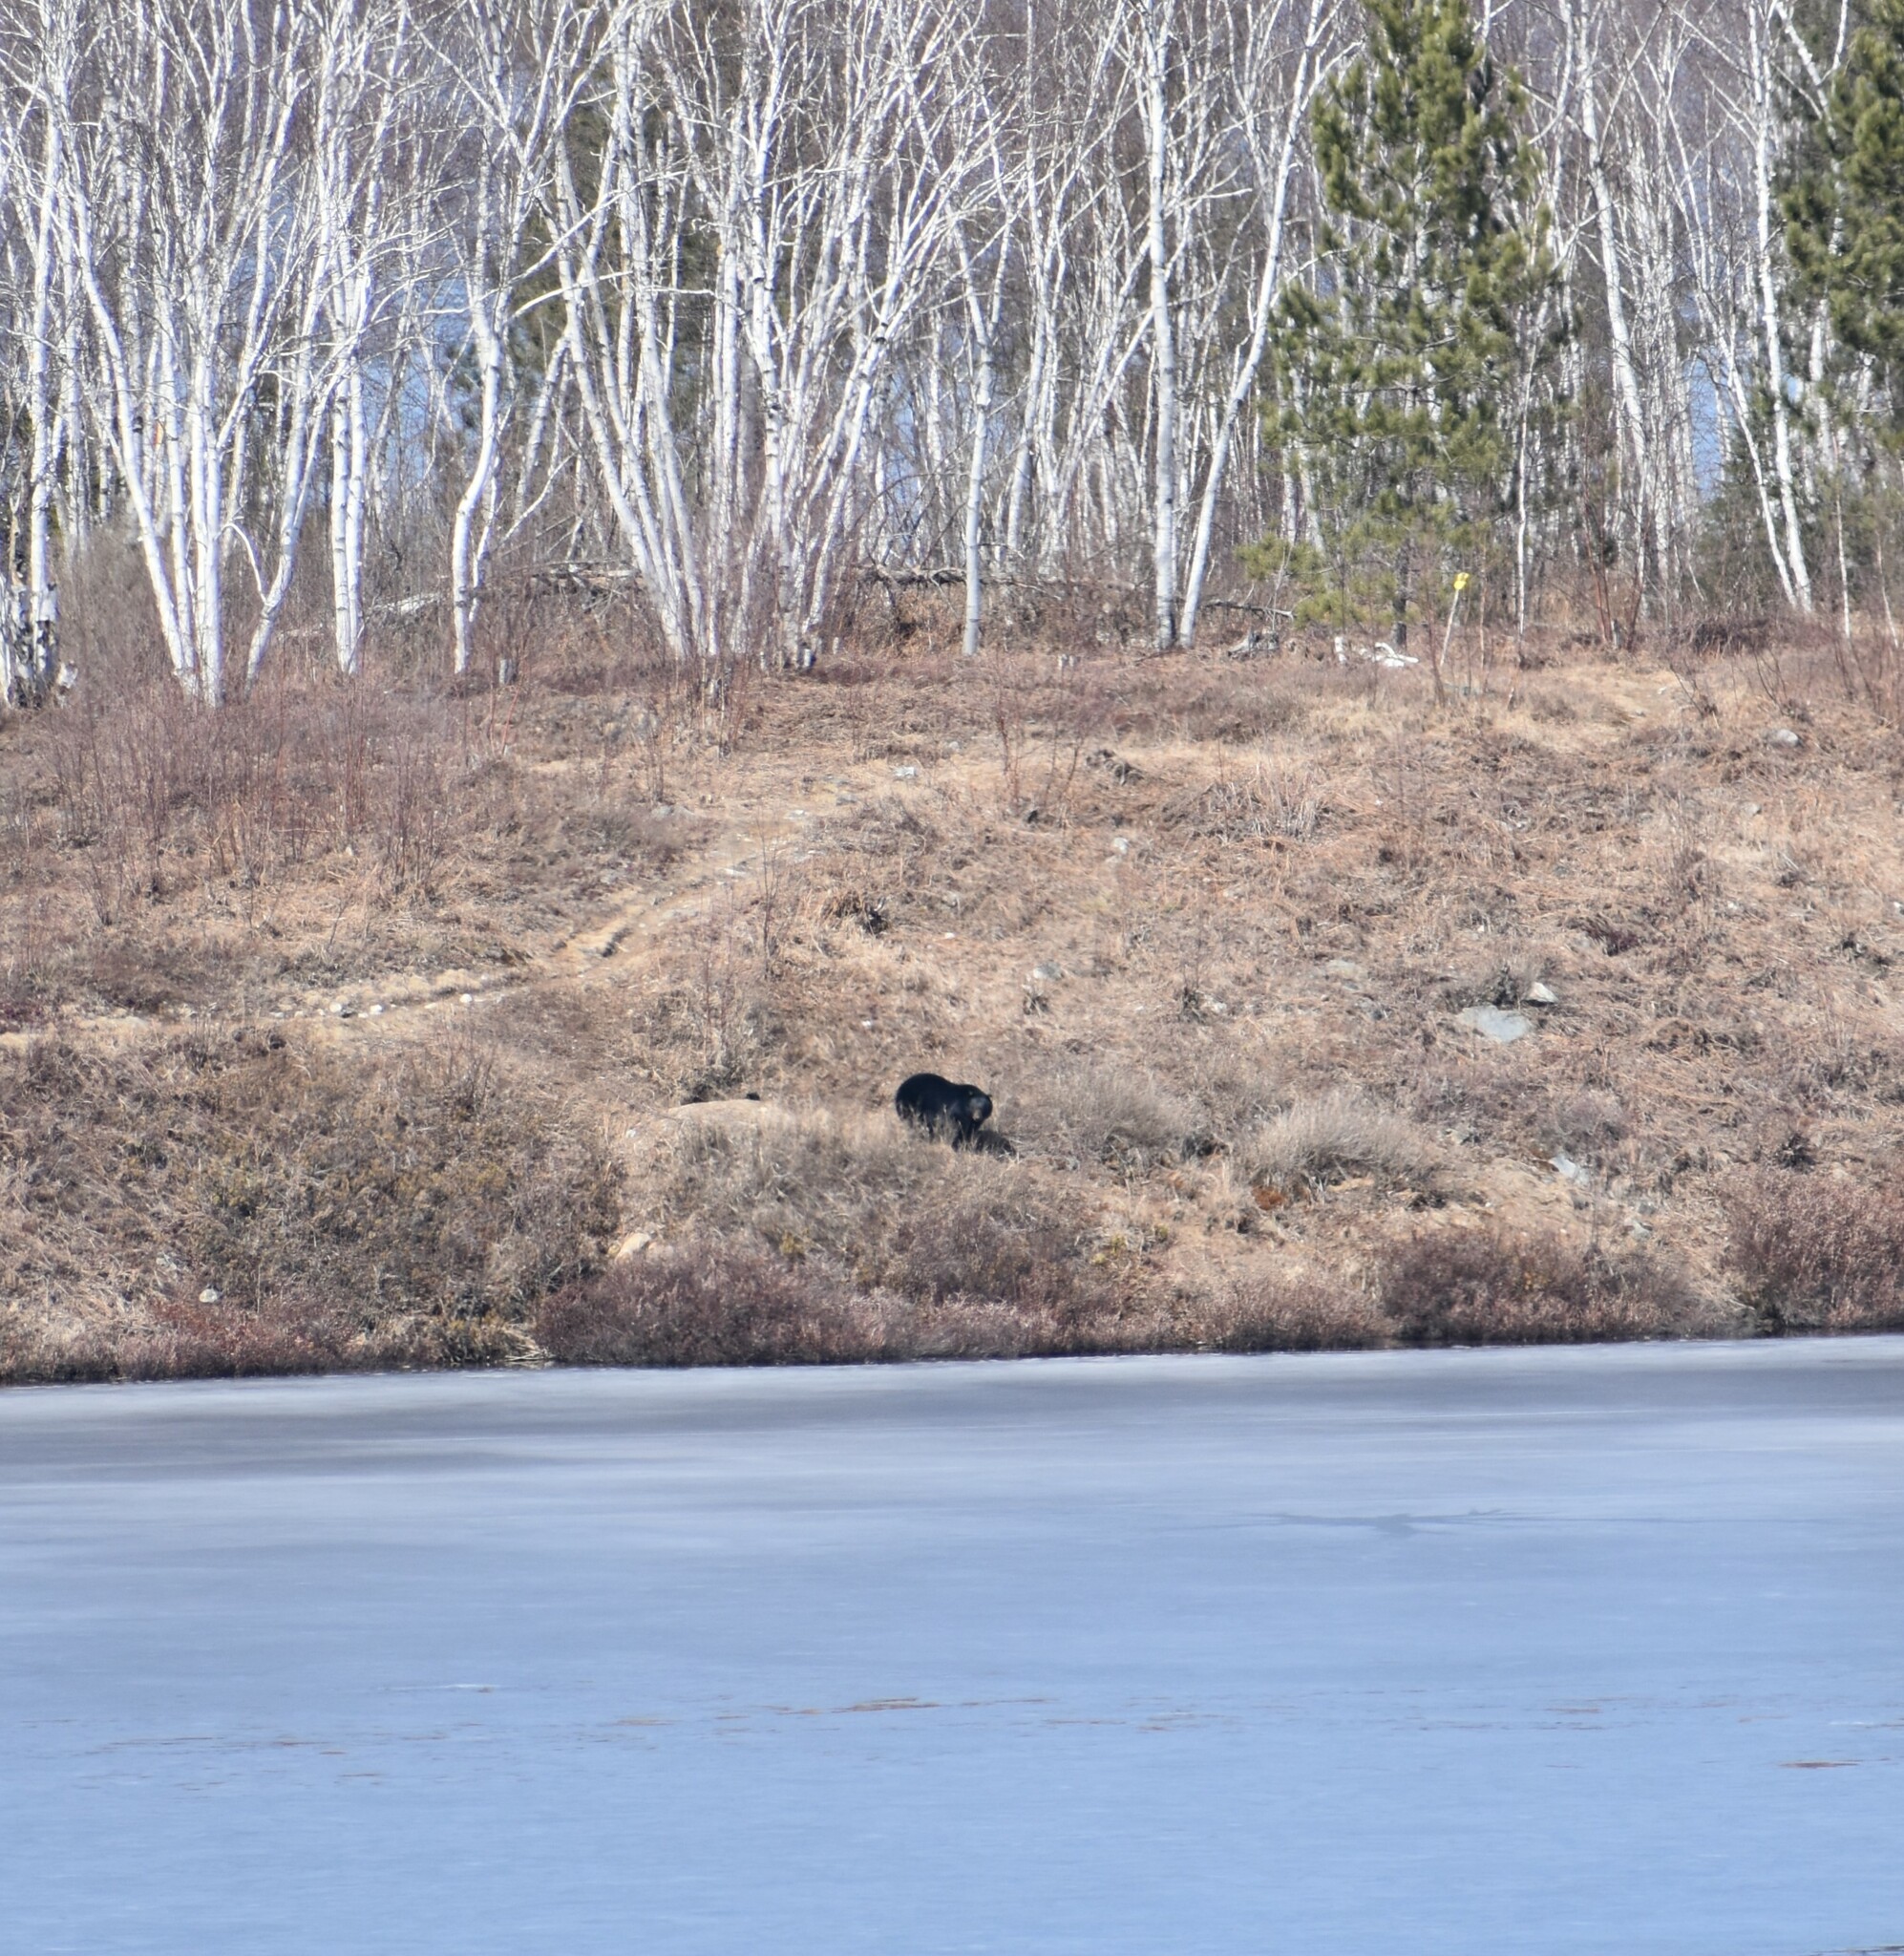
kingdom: Animalia
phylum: Chordata
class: Mammalia
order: Carnivora
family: Ursidae
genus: Ursus
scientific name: Ursus americanus
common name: American black bear
